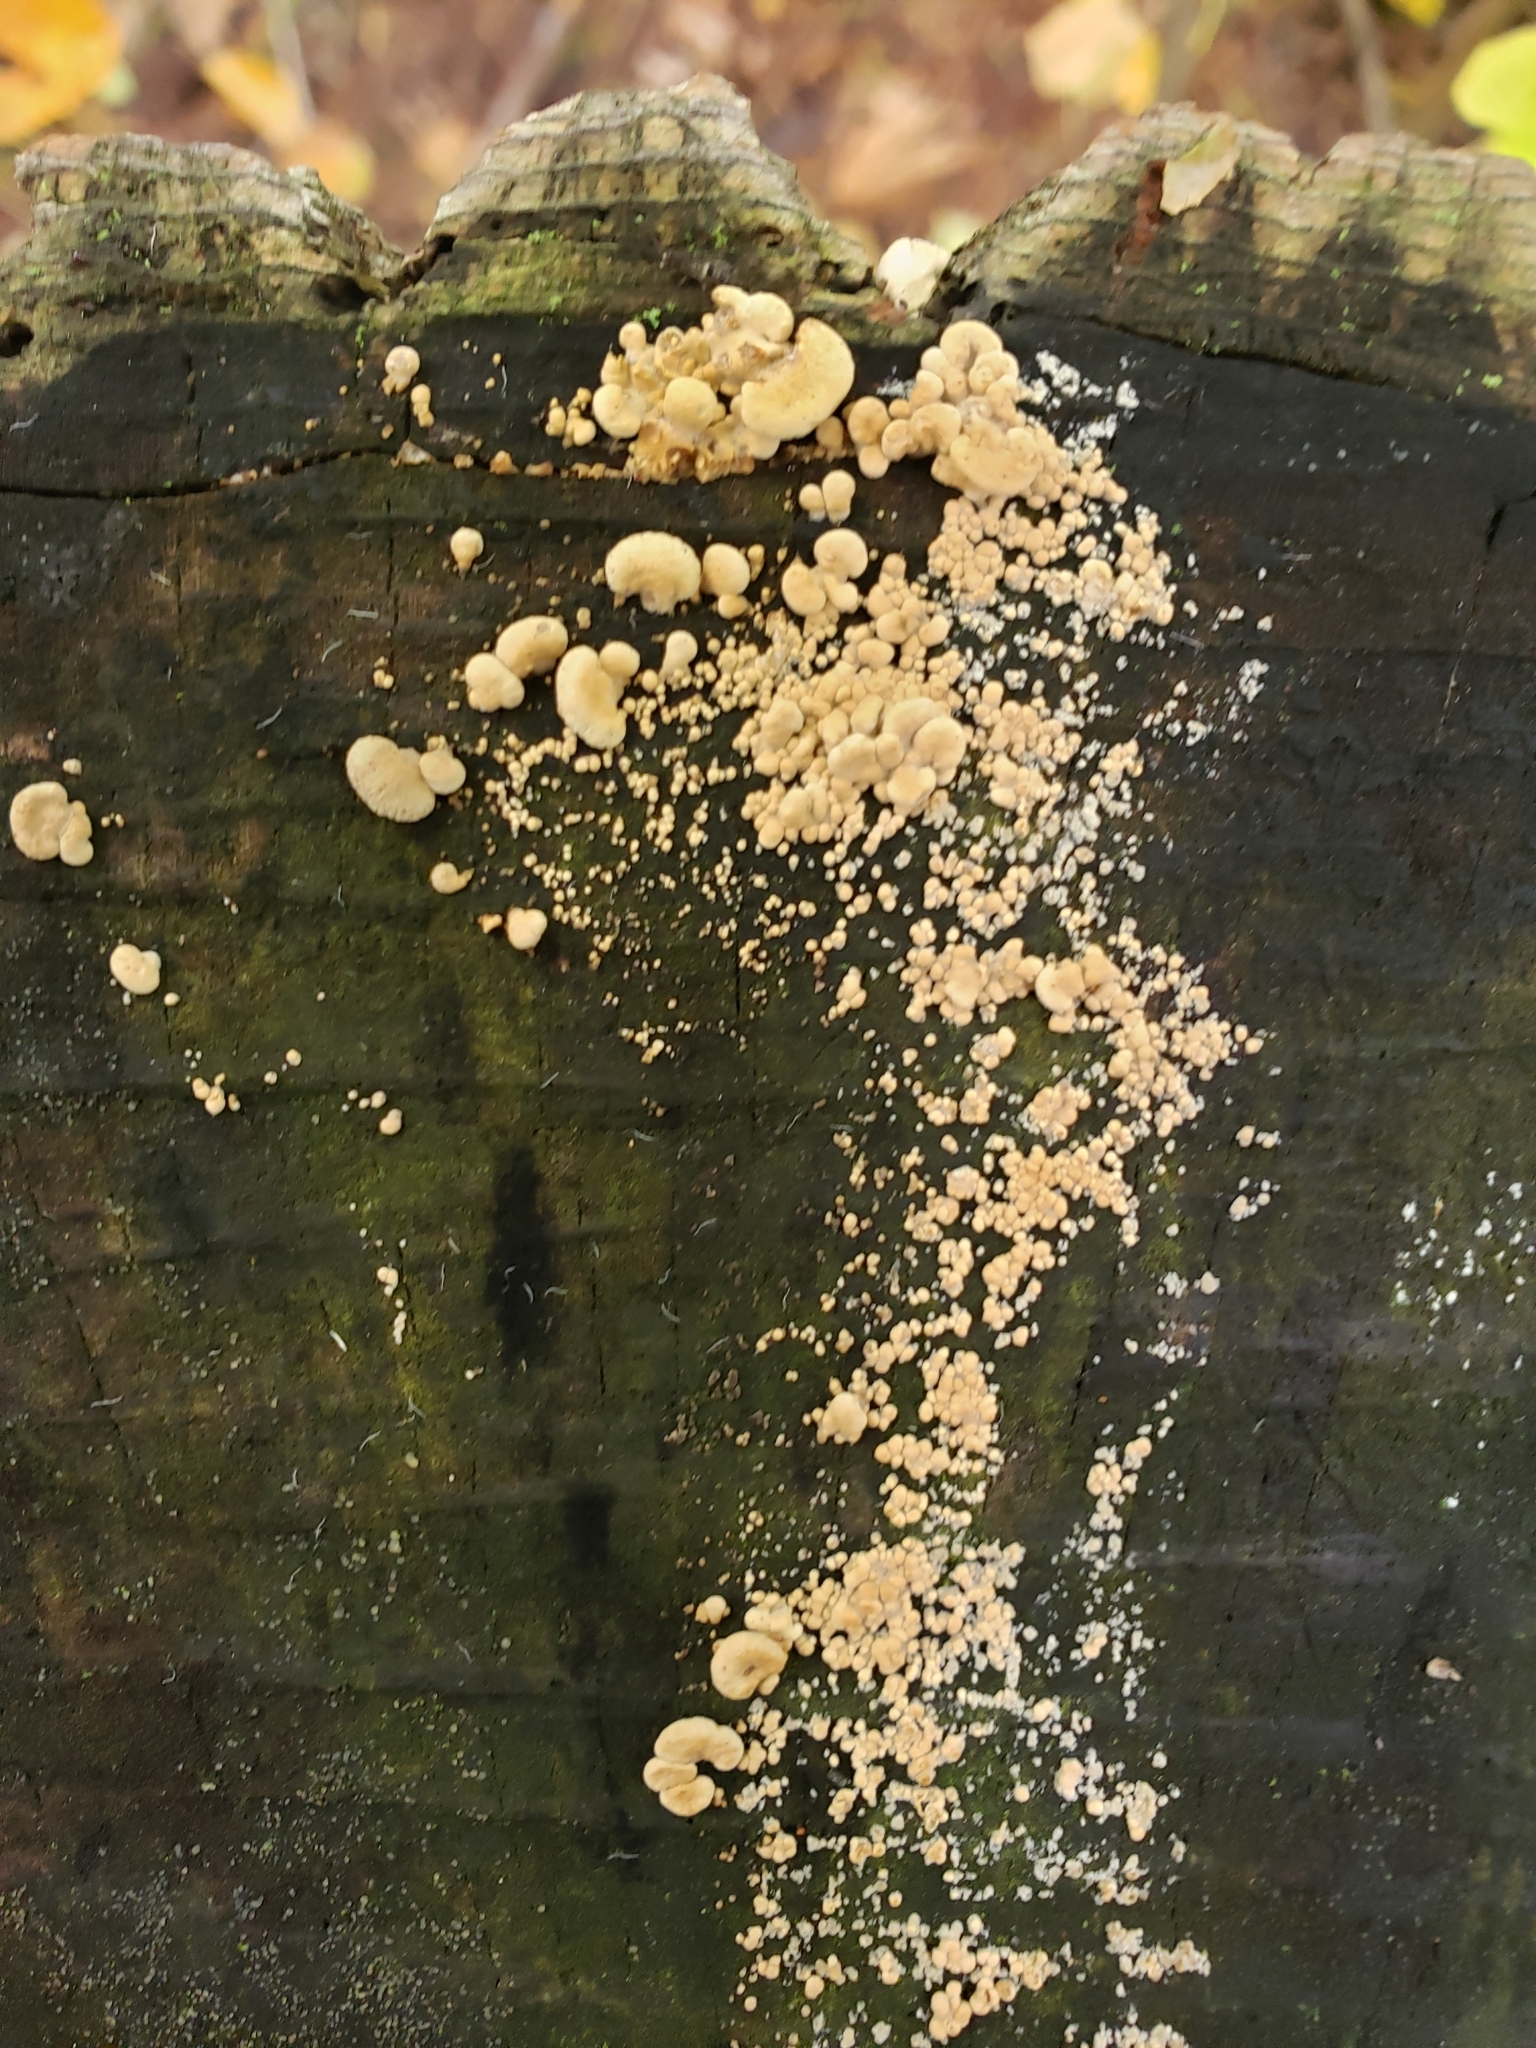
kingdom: Fungi
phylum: Basidiomycota
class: Agaricomycetes
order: Agaricales
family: Mycenaceae
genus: Panellus
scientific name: Panellus stipticus
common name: Bitter oysterling
